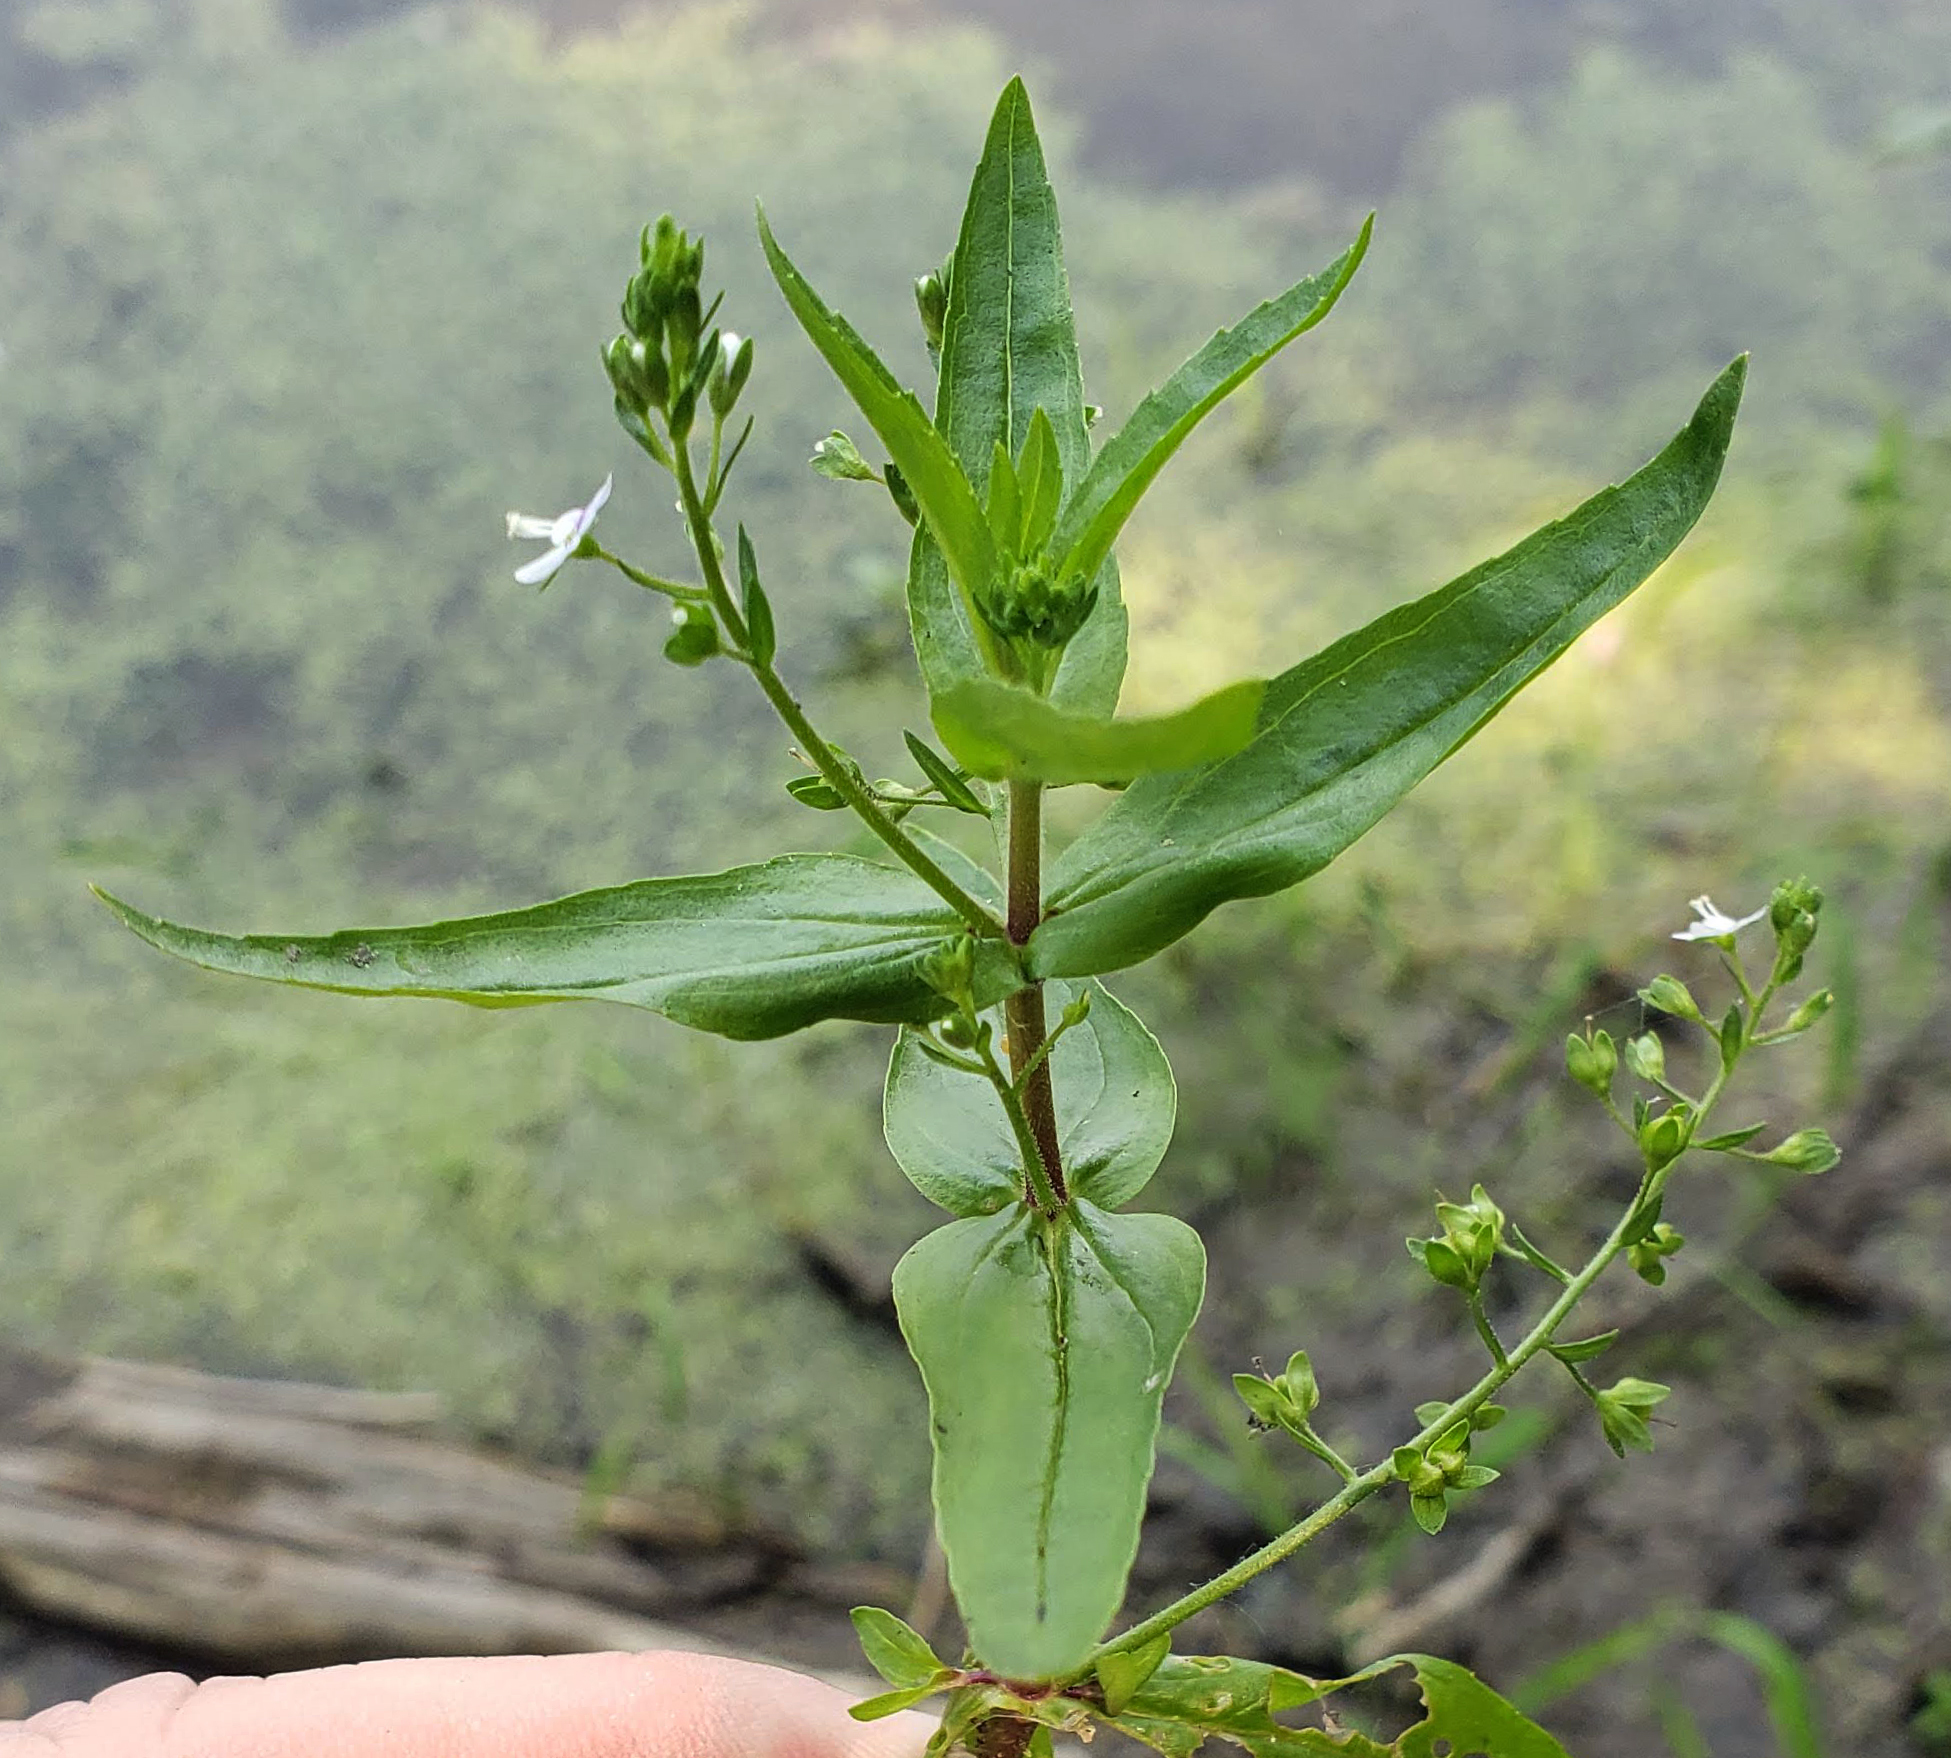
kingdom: Plantae
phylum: Tracheophyta
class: Magnoliopsida
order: Lamiales
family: Plantaginaceae
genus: Veronica
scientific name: Veronica anagallis-aquatica
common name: Water speedwell
